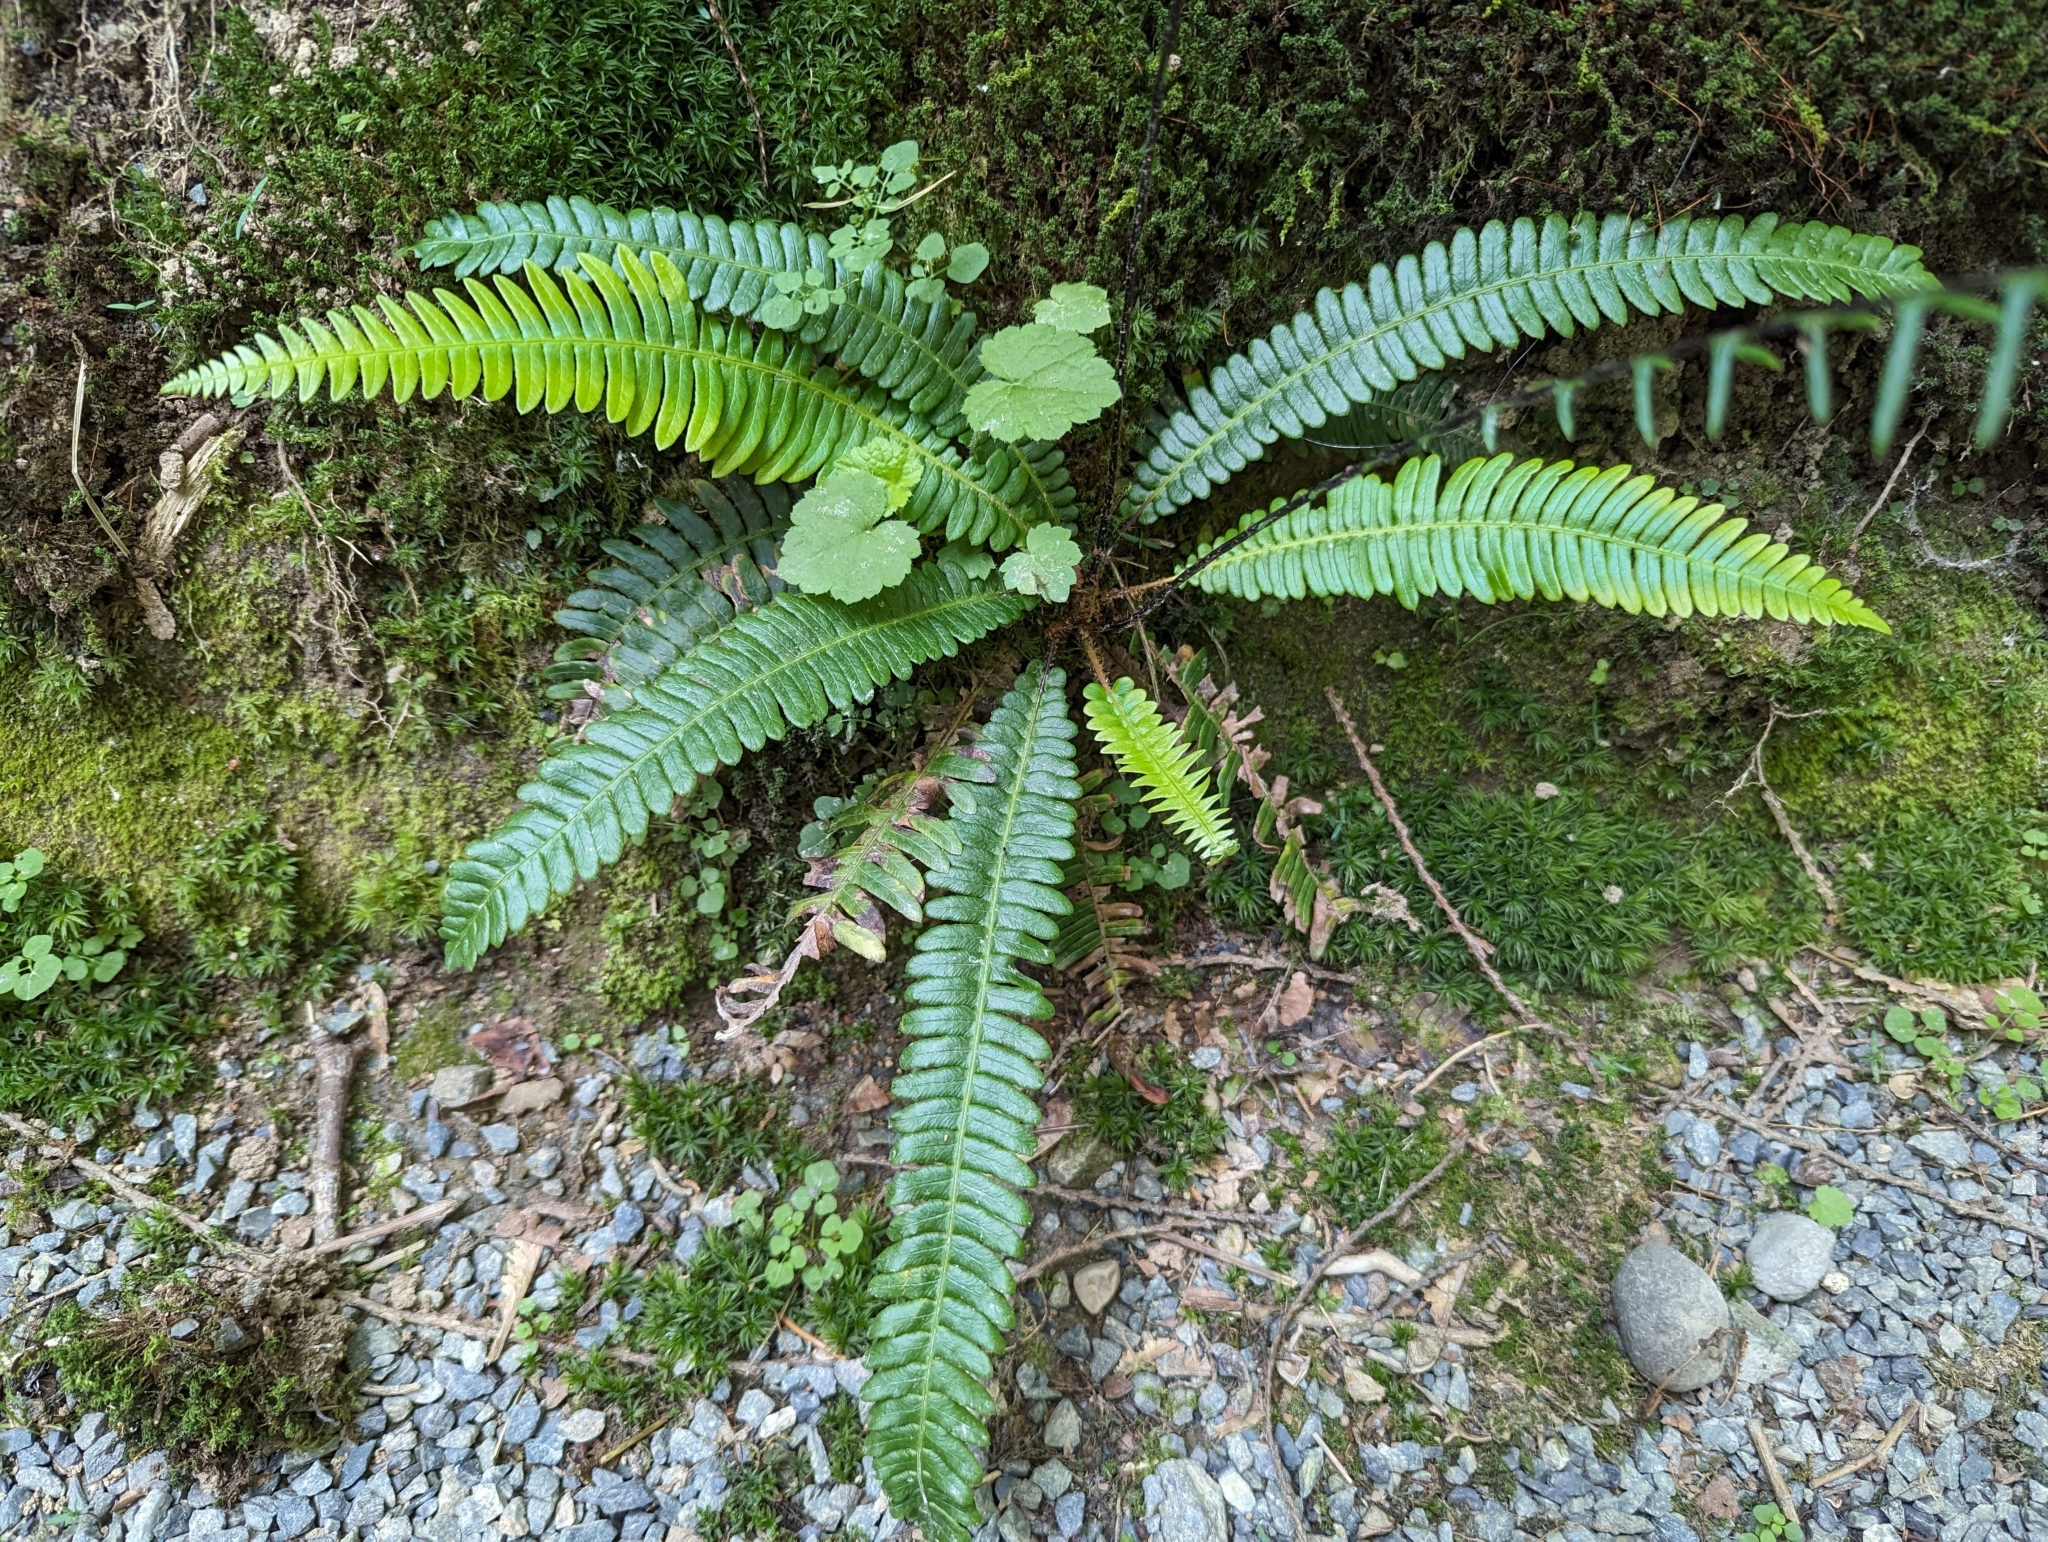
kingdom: Plantae
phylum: Tracheophyta
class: Polypodiopsida
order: Polypodiales
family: Blechnaceae
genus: Struthiopteris
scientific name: Struthiopteris spicant
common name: Deer fern
